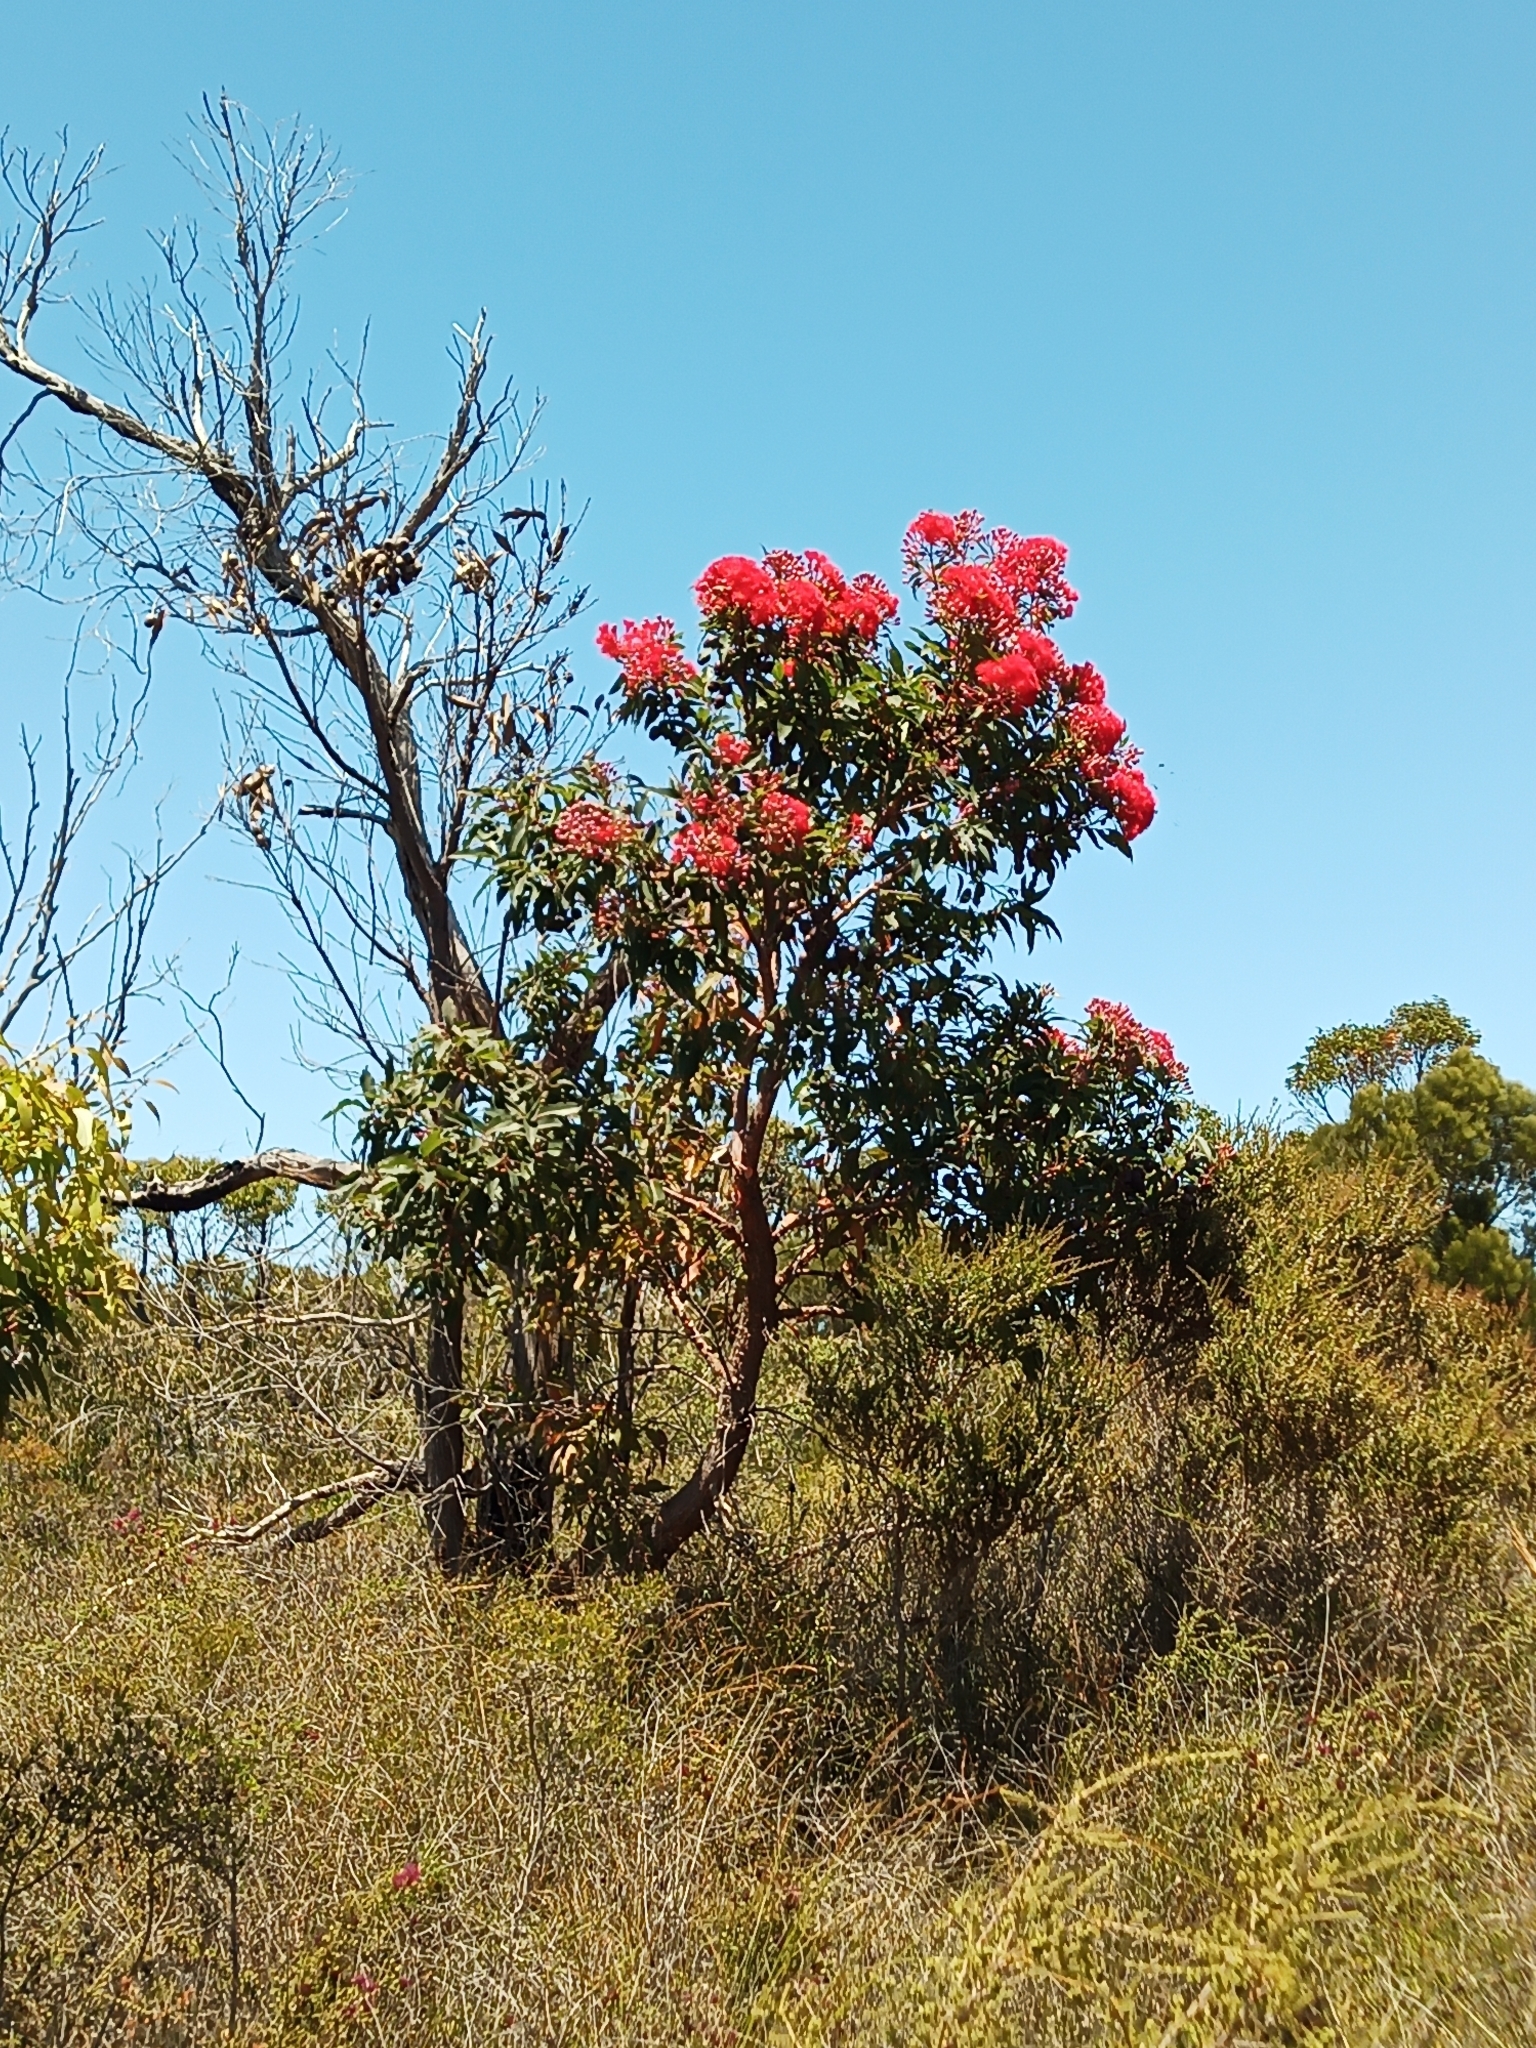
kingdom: Plantae
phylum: Tracheophyta
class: Magnoliopsida
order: Myrtales
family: Myrtaceae
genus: Corymbia
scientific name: Corymbia ficifolia
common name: Redflower gum
